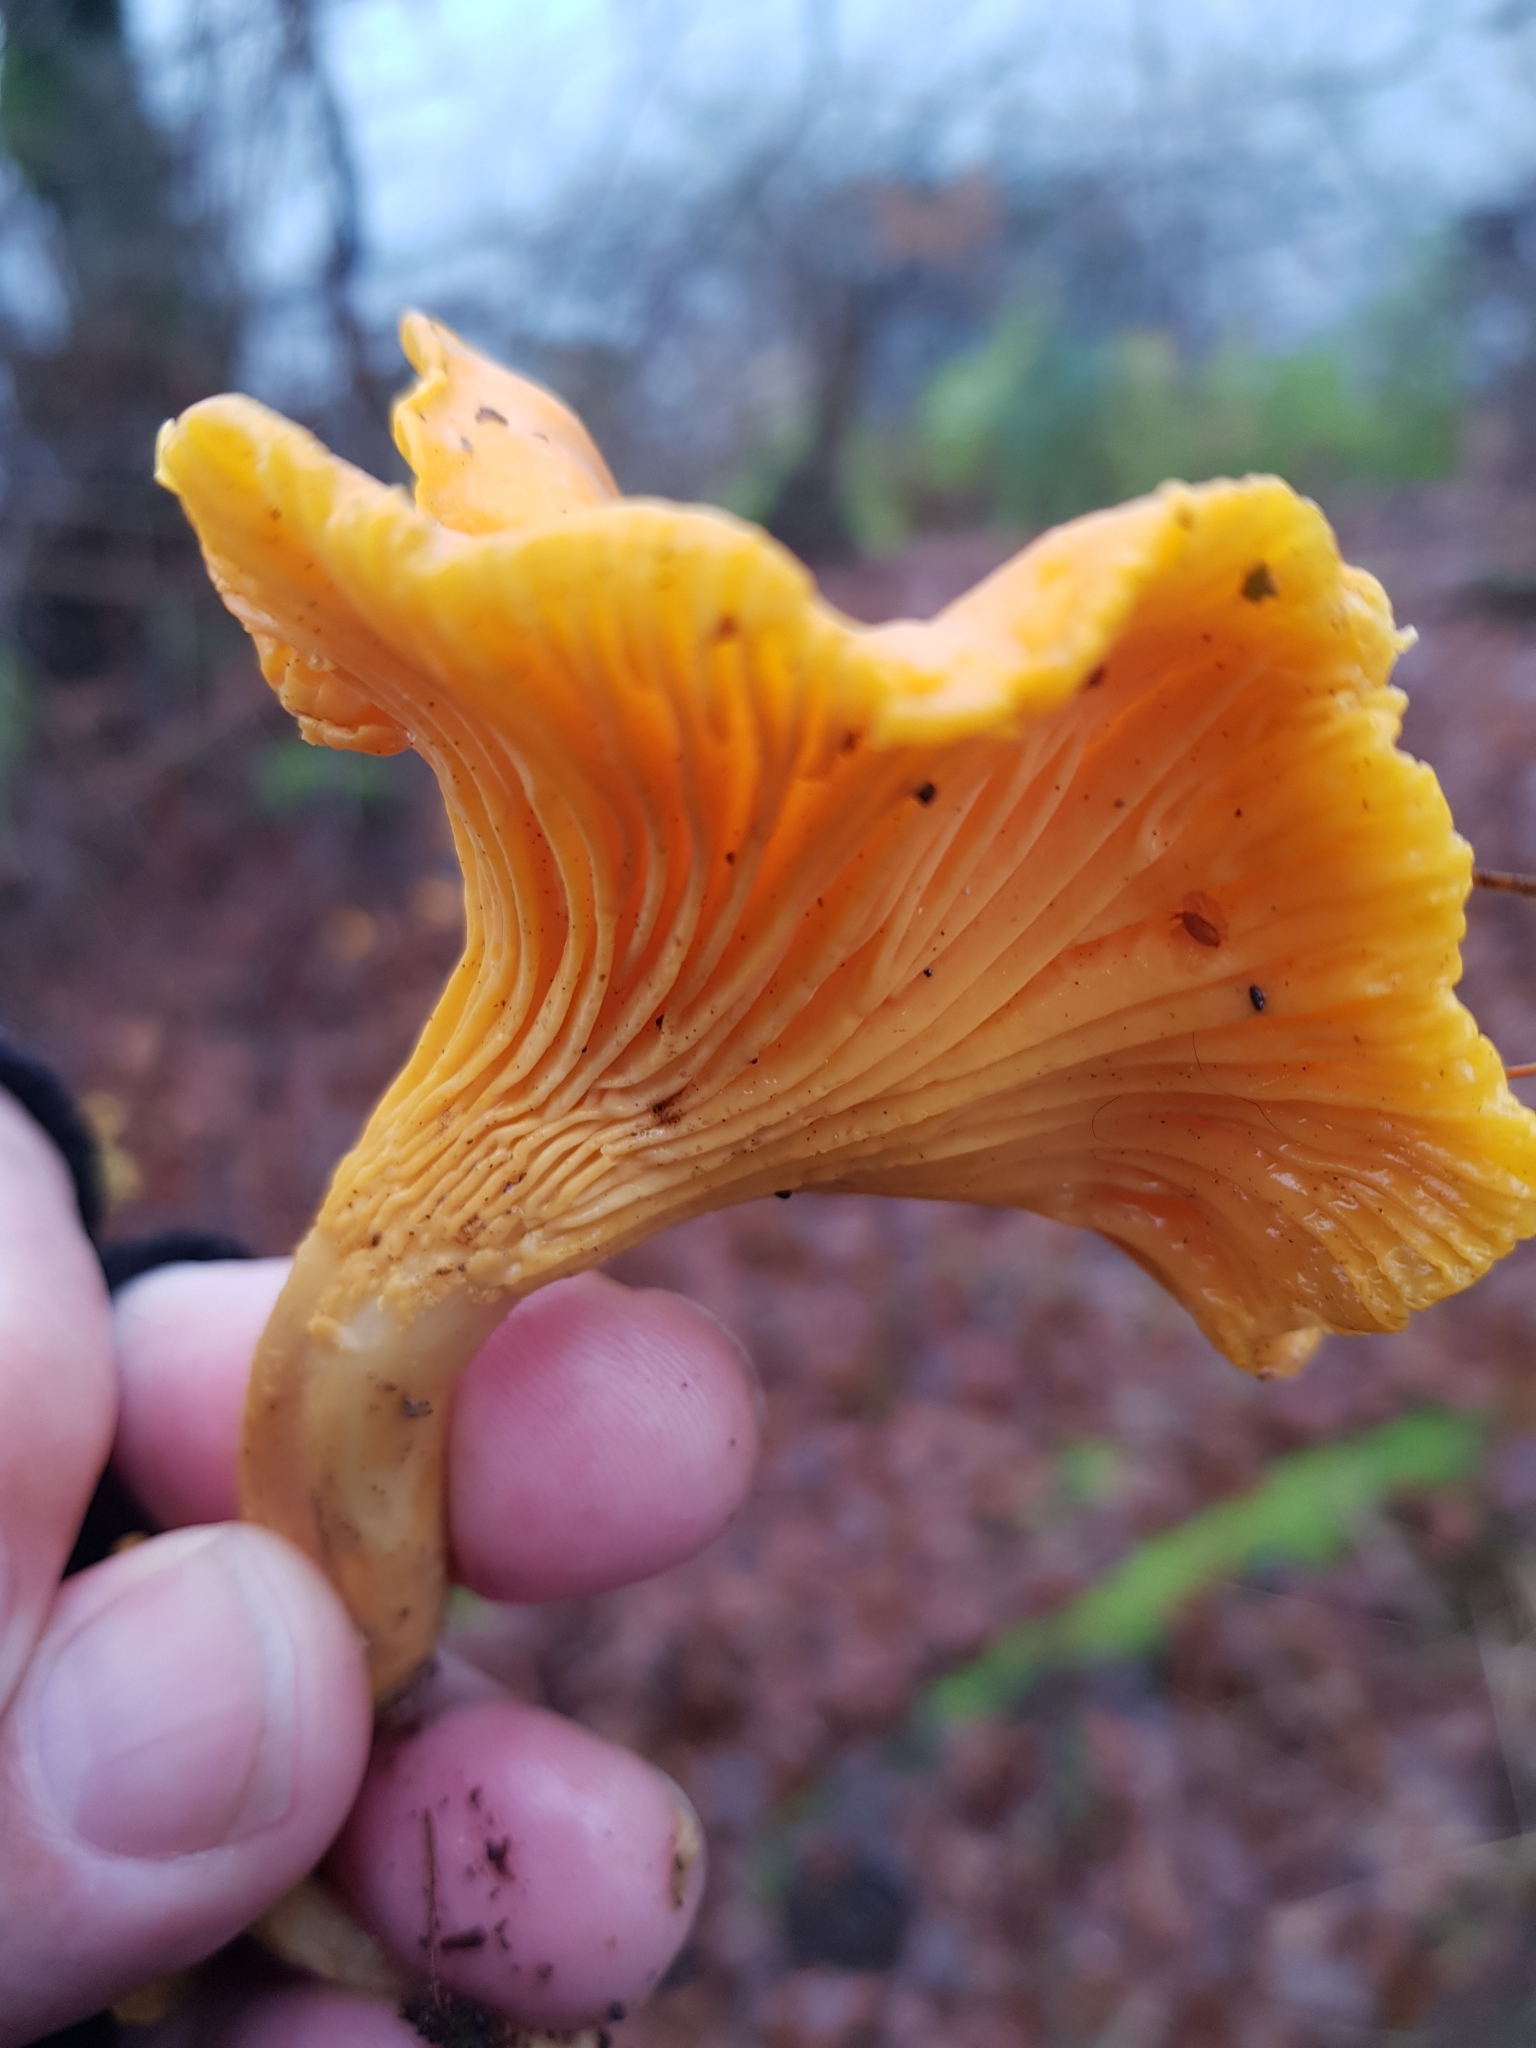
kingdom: Fungi
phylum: Basidiomycota
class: Agaricomycetes
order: Cantharellales
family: Hydnaceae
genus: Cantharellus
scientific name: Cantharellus cibarius
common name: Chanterelle
